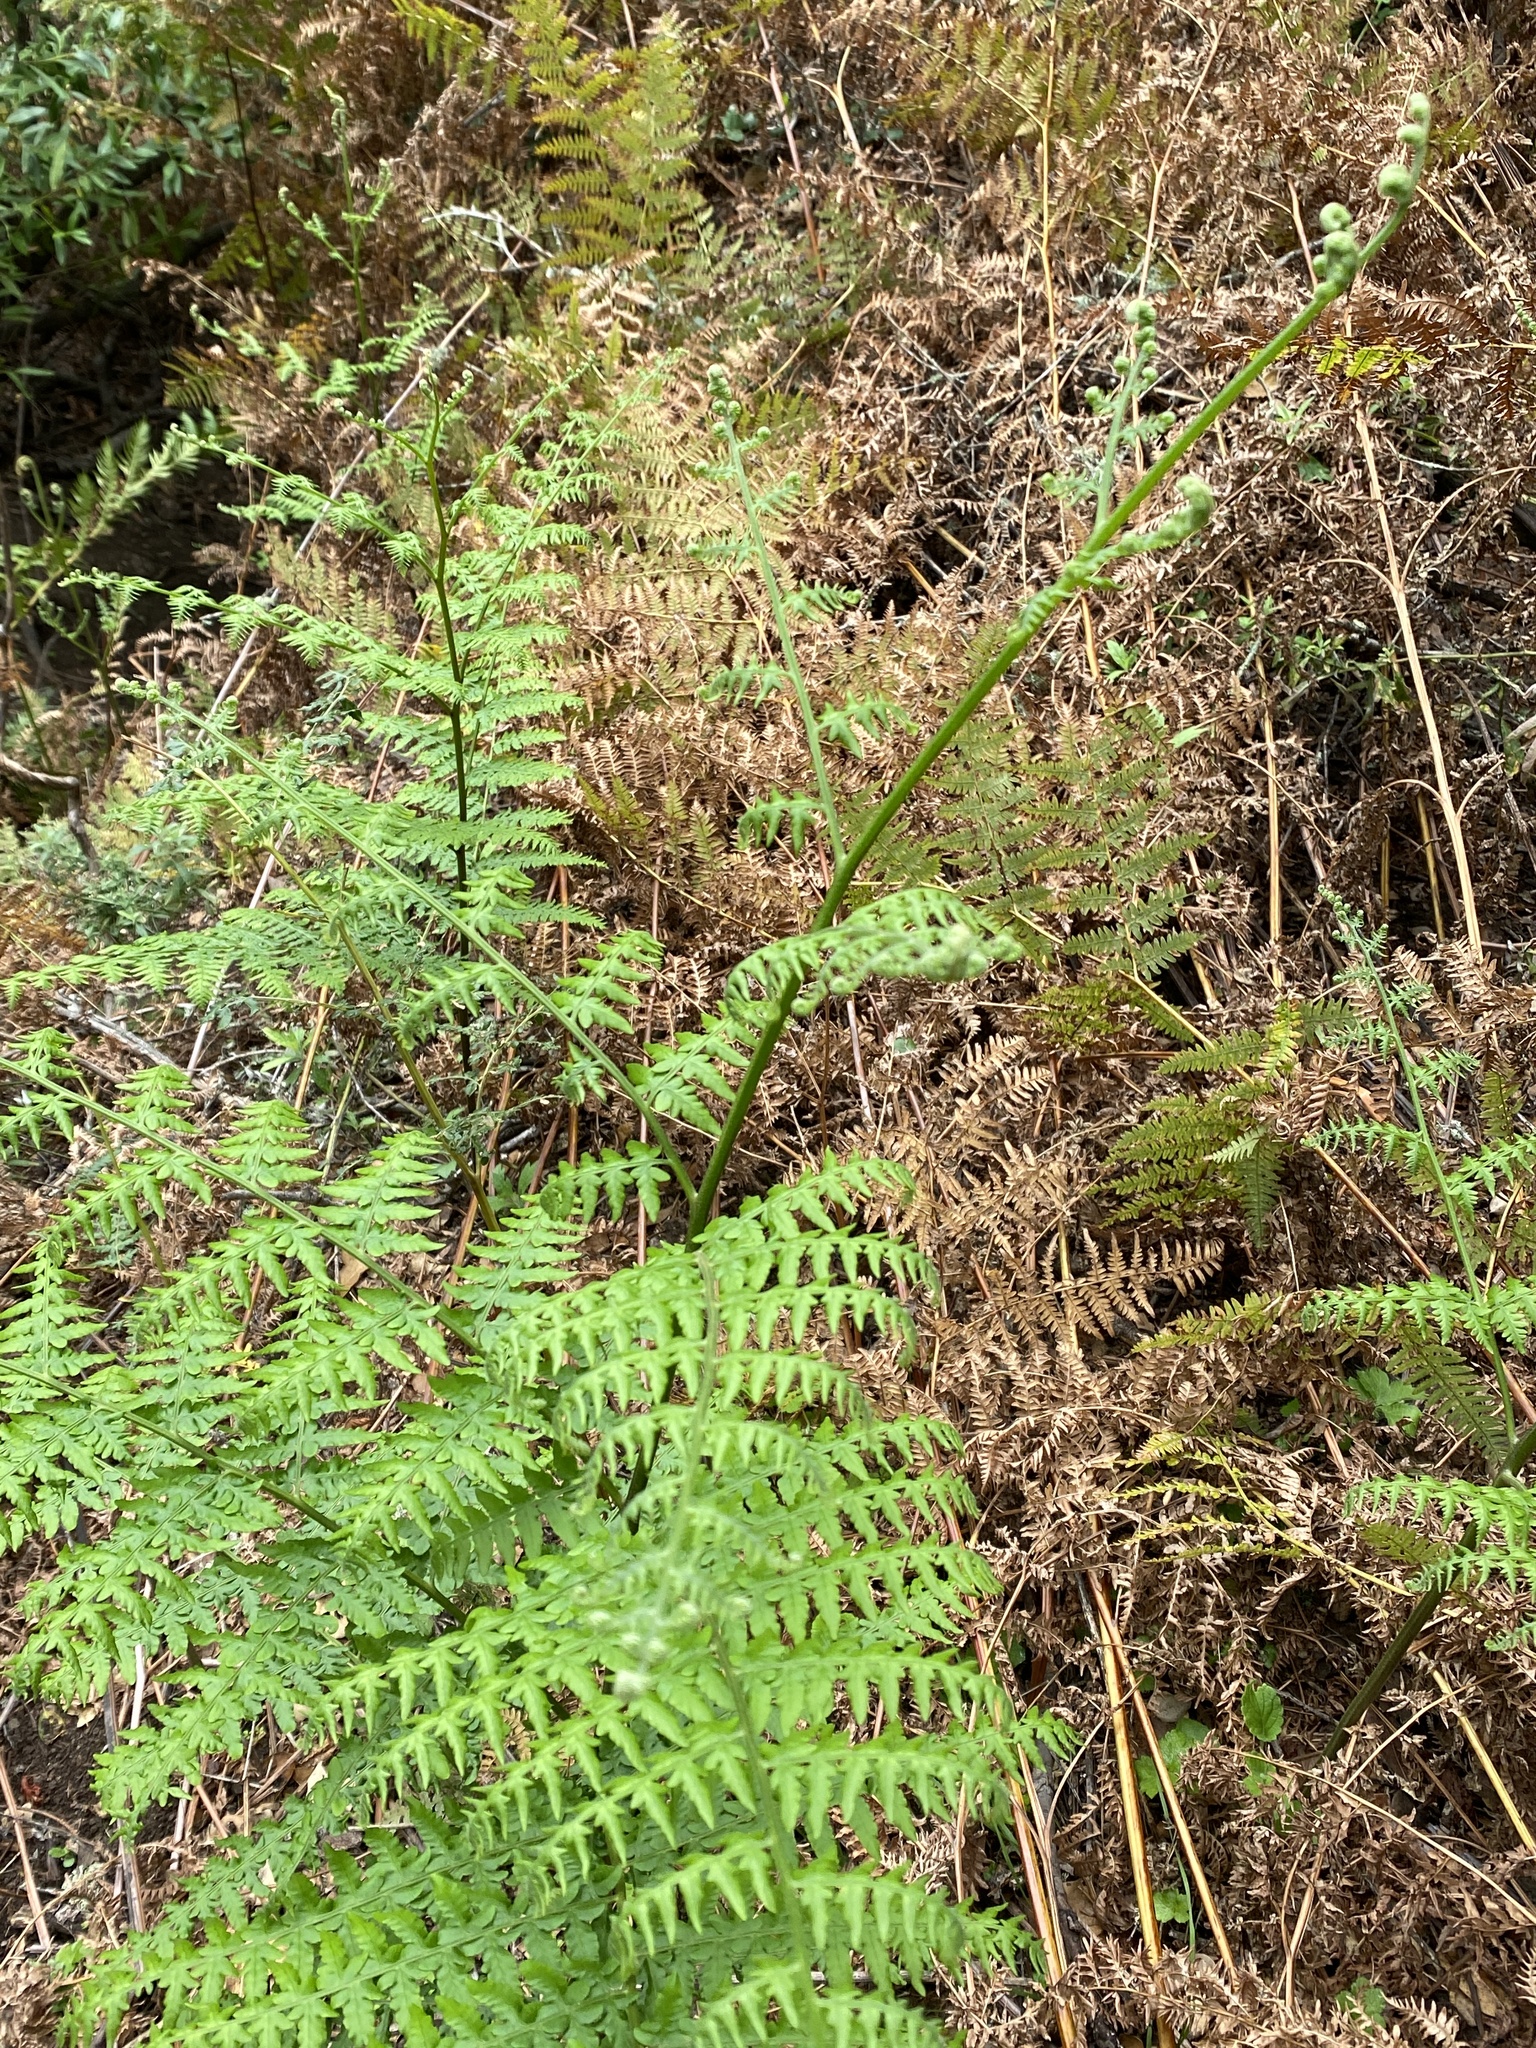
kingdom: Plantae
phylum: Tracheophyta
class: Polypodiopsida
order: Polypodiales
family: Dennstaedtiaceae
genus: Pteridium
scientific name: Pteridium aquilinum
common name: Bracken
